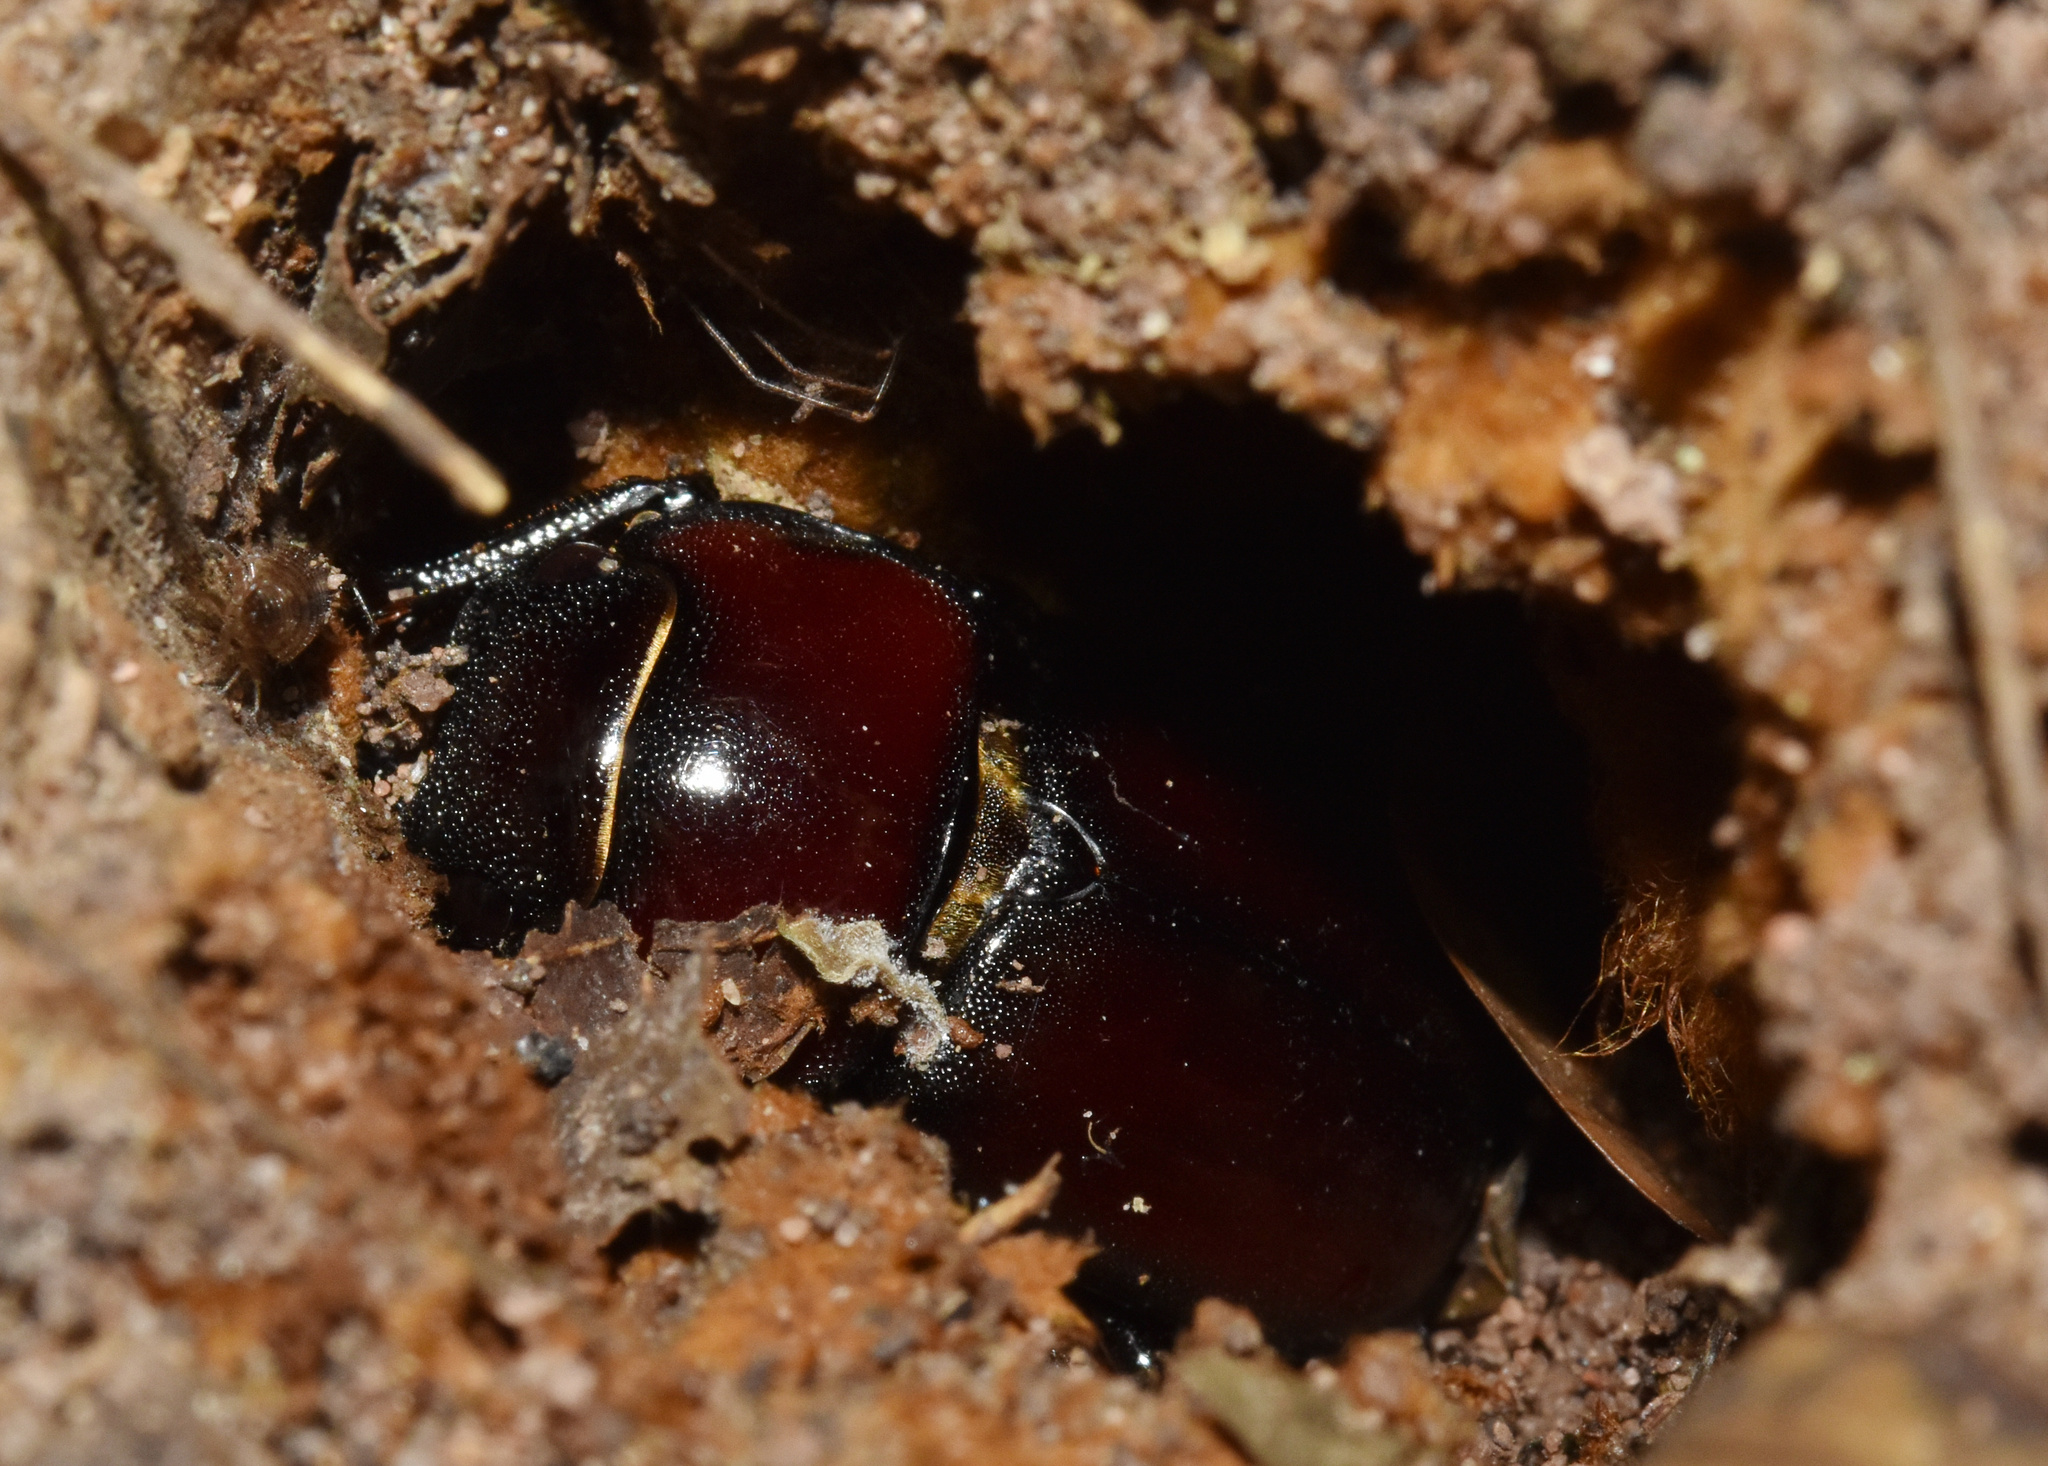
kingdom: Animalia
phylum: Arthropoda
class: Insecta
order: Coleoptera
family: Lucanidae
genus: Prosopocoilus
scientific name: Prosopocoilus natalensis
